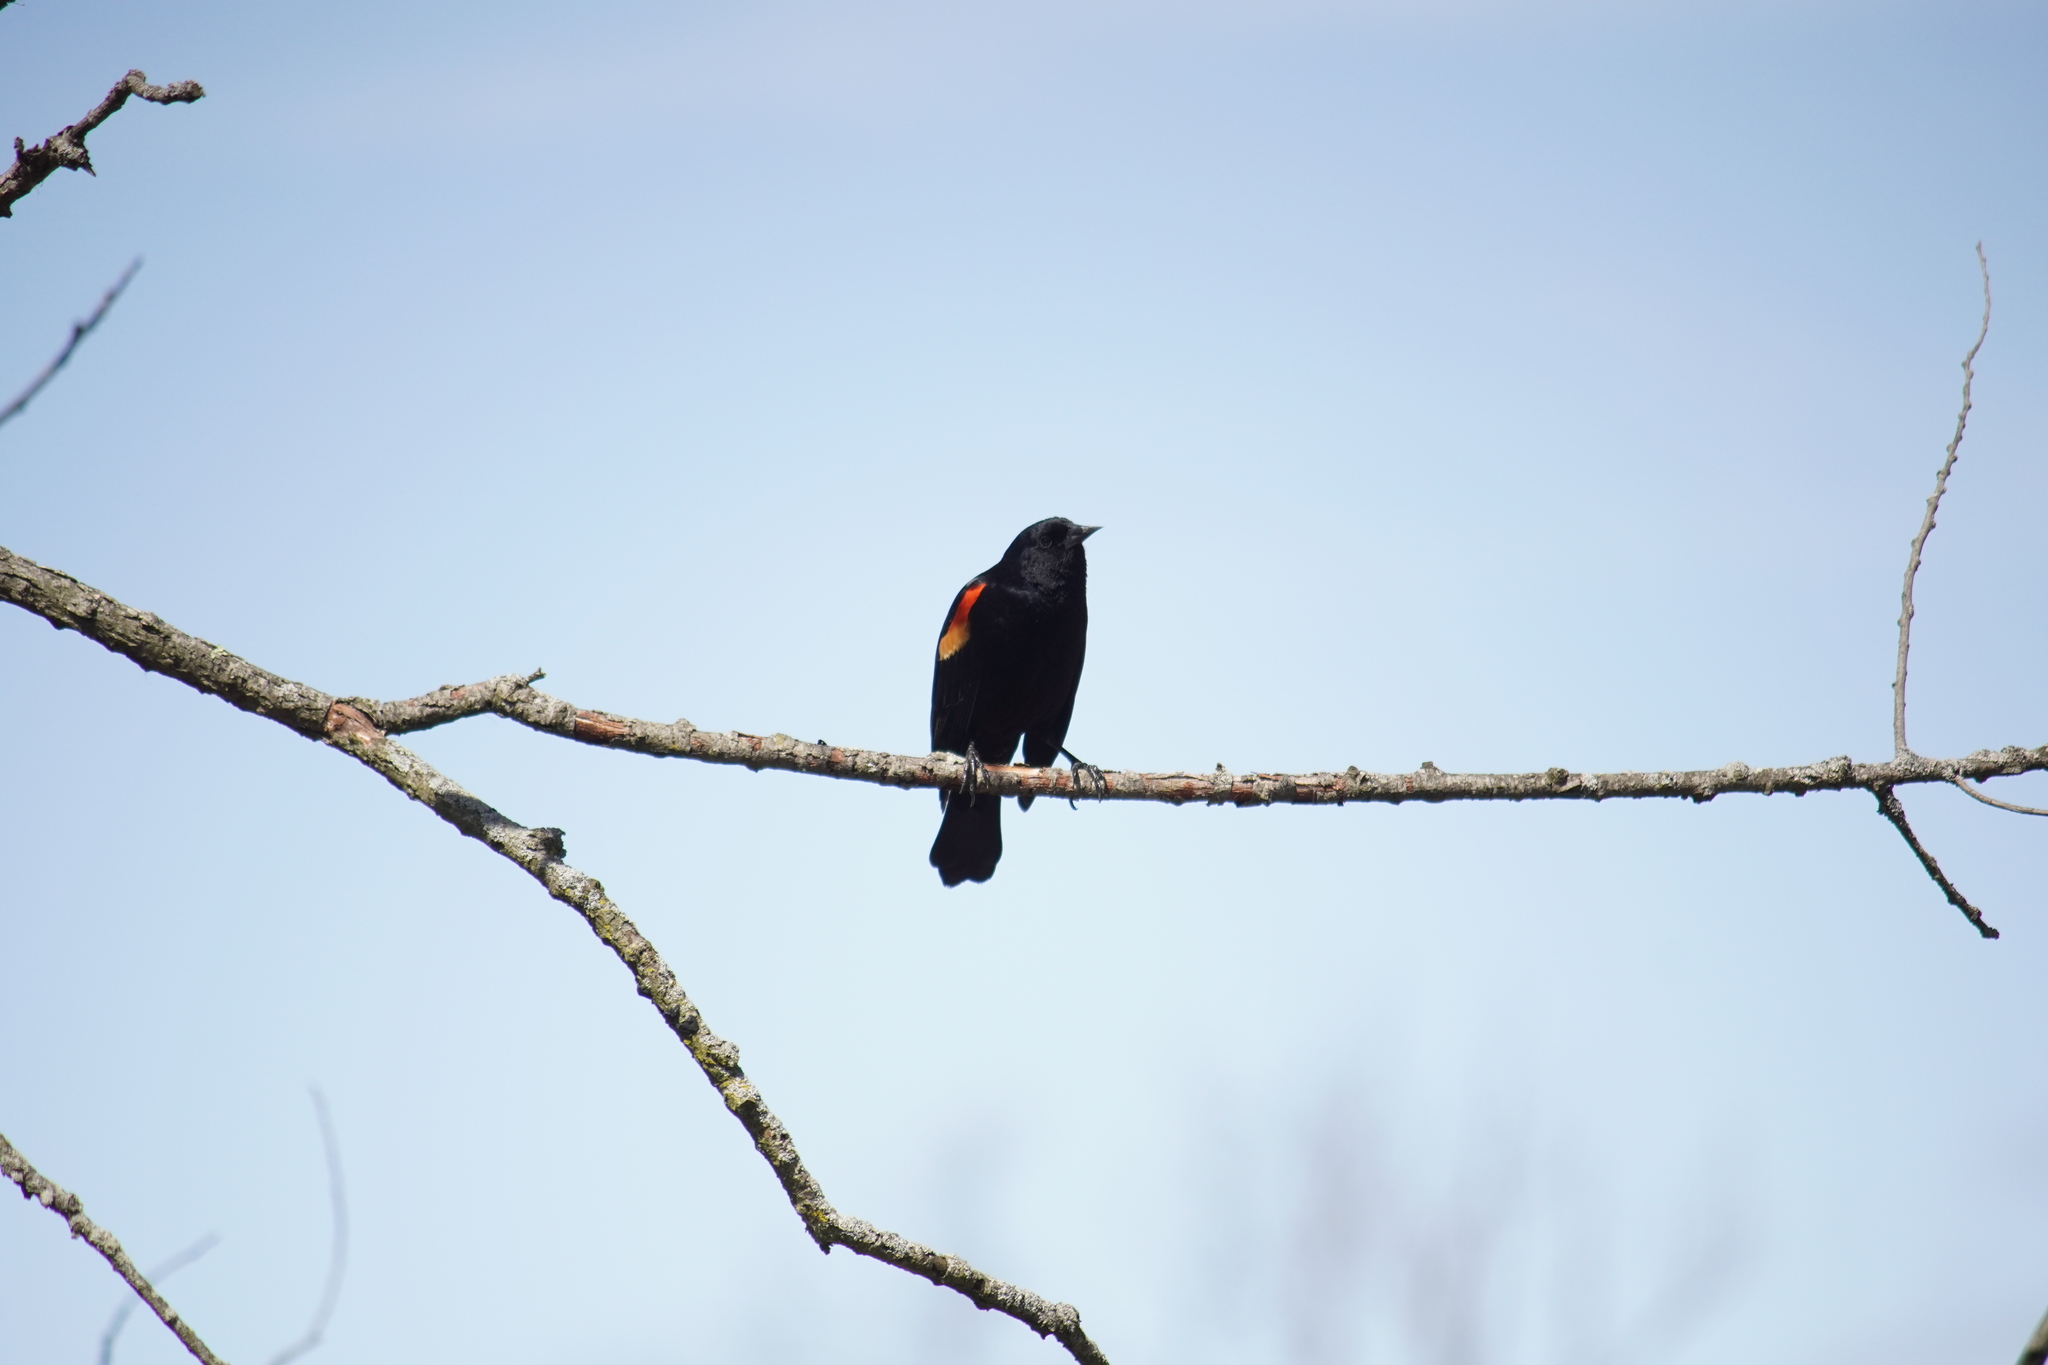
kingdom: Animalia
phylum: Chordata
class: Aves
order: Passeriformes
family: Icteridae
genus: Agelaius
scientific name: Agelaius phoeniceus
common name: Red-winged blackbird
